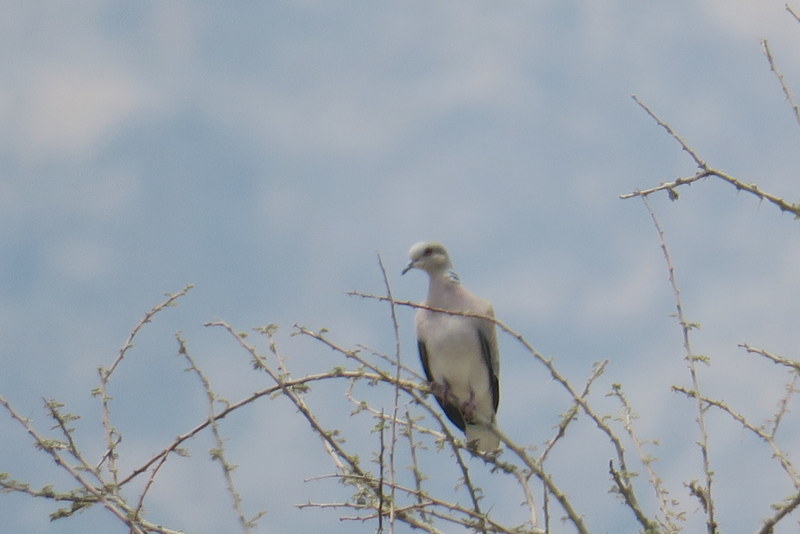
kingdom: Animalia
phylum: Chordata
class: Aves
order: Columbiformes
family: Columbidae
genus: Streptopelia
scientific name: Streptopelia turtur
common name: European turtle dove
